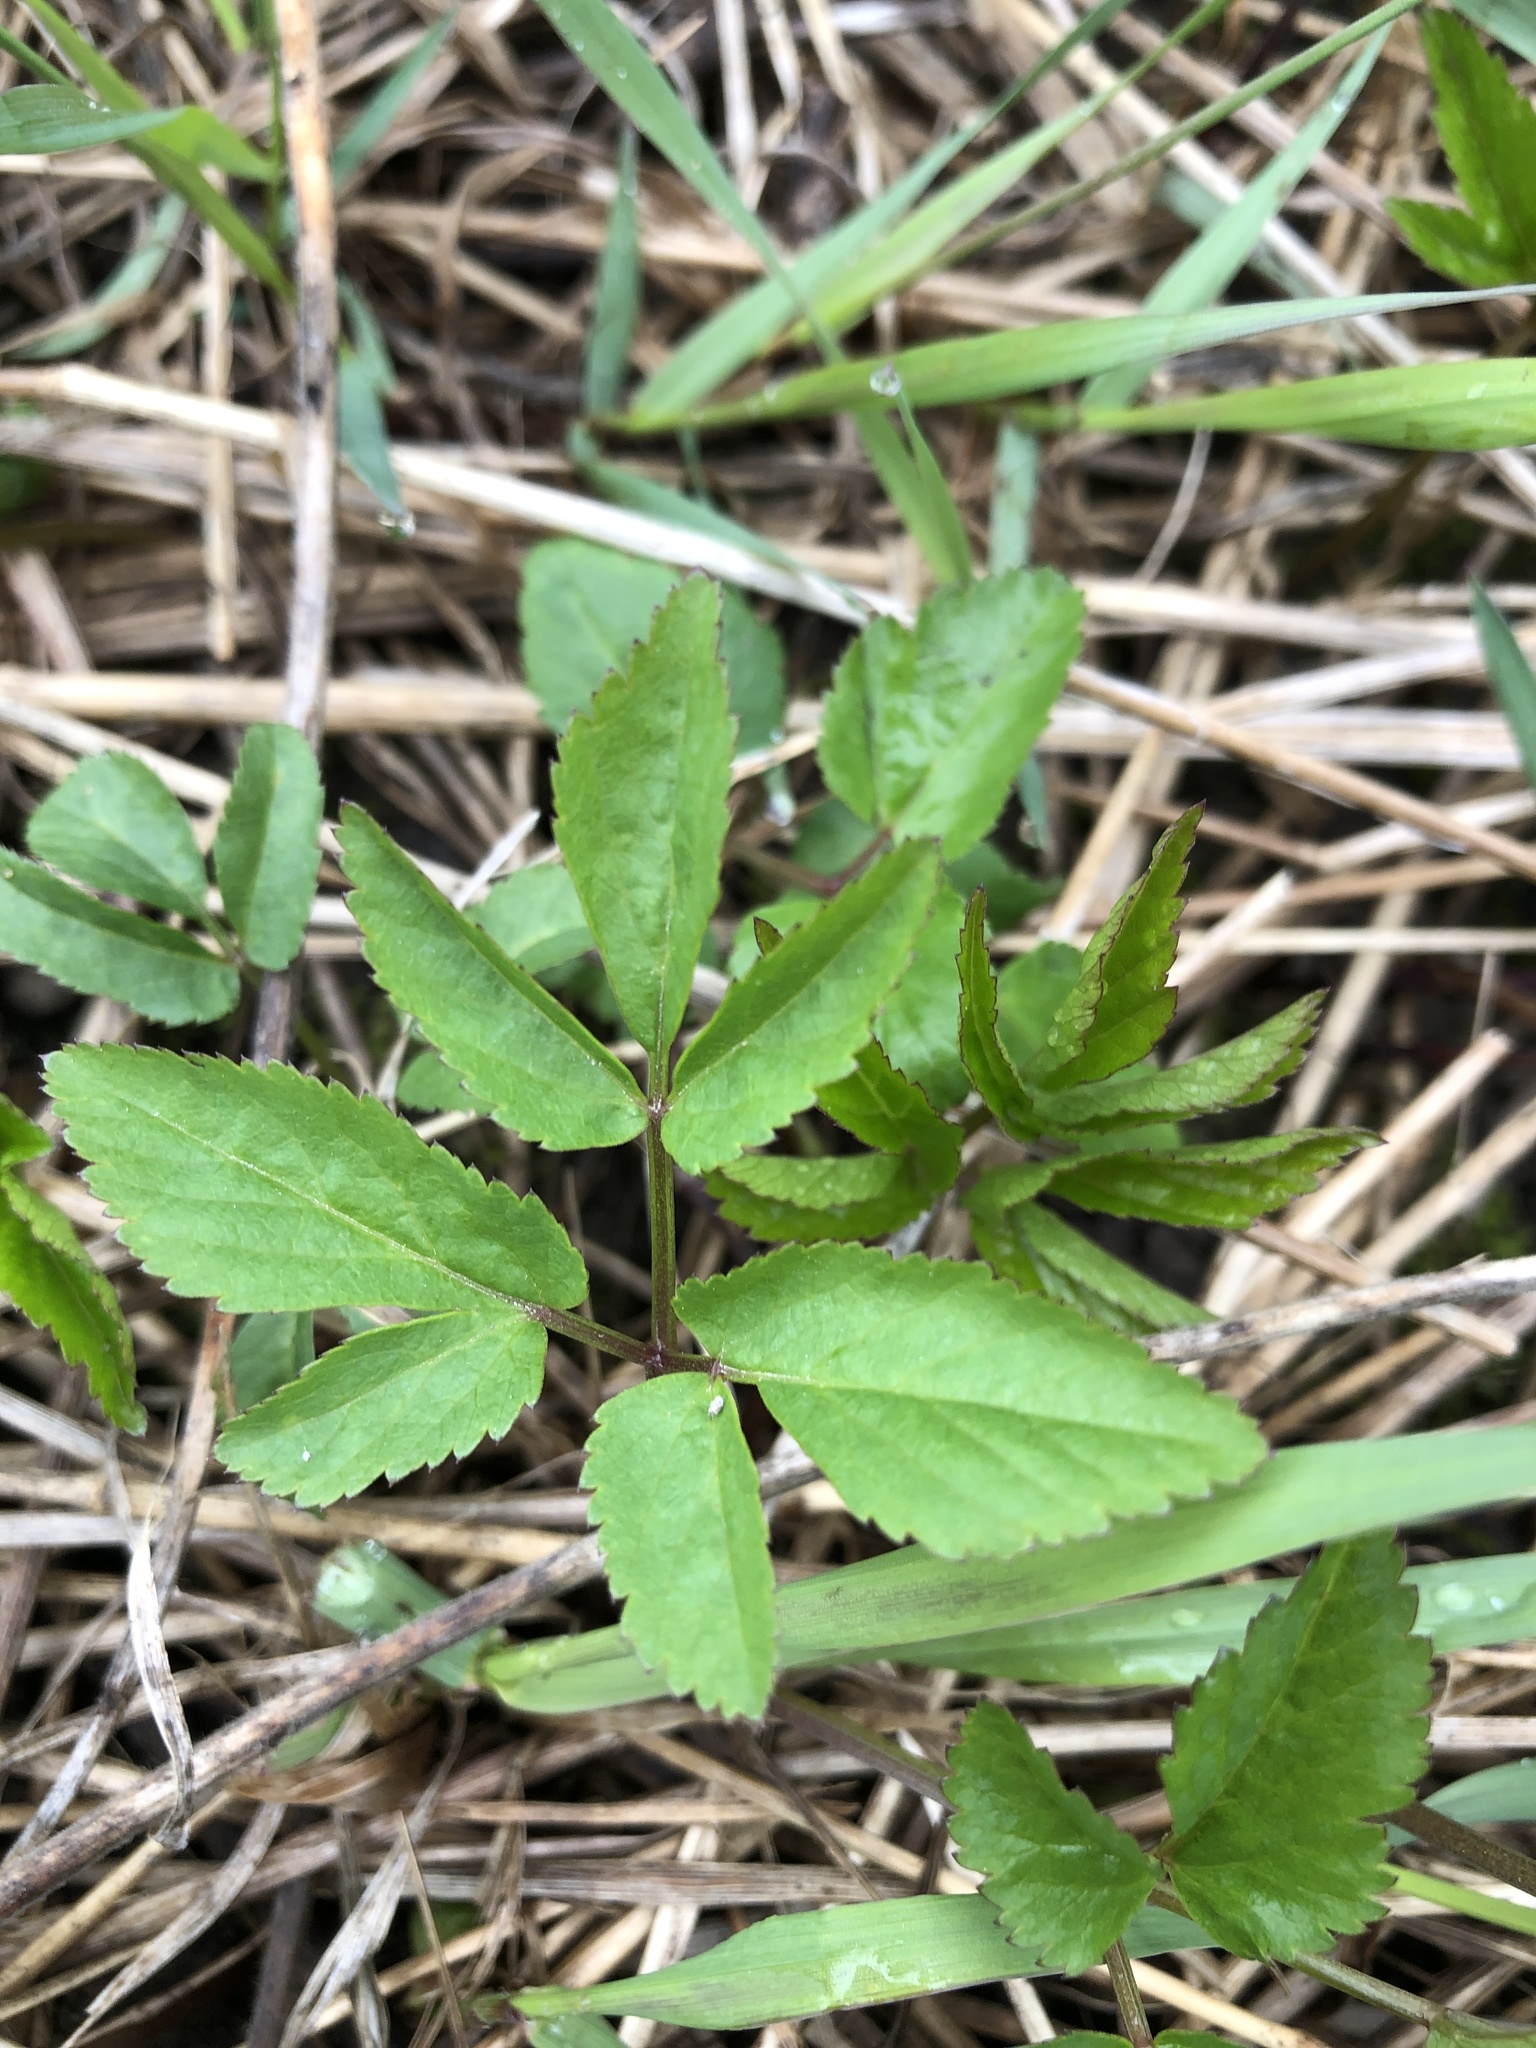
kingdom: Plantae
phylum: Tracheophyta
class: Magnoliopsida
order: Apiales
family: Apiaceae
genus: Aegopodium
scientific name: Aegopodium podagraria
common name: Ground-elder
